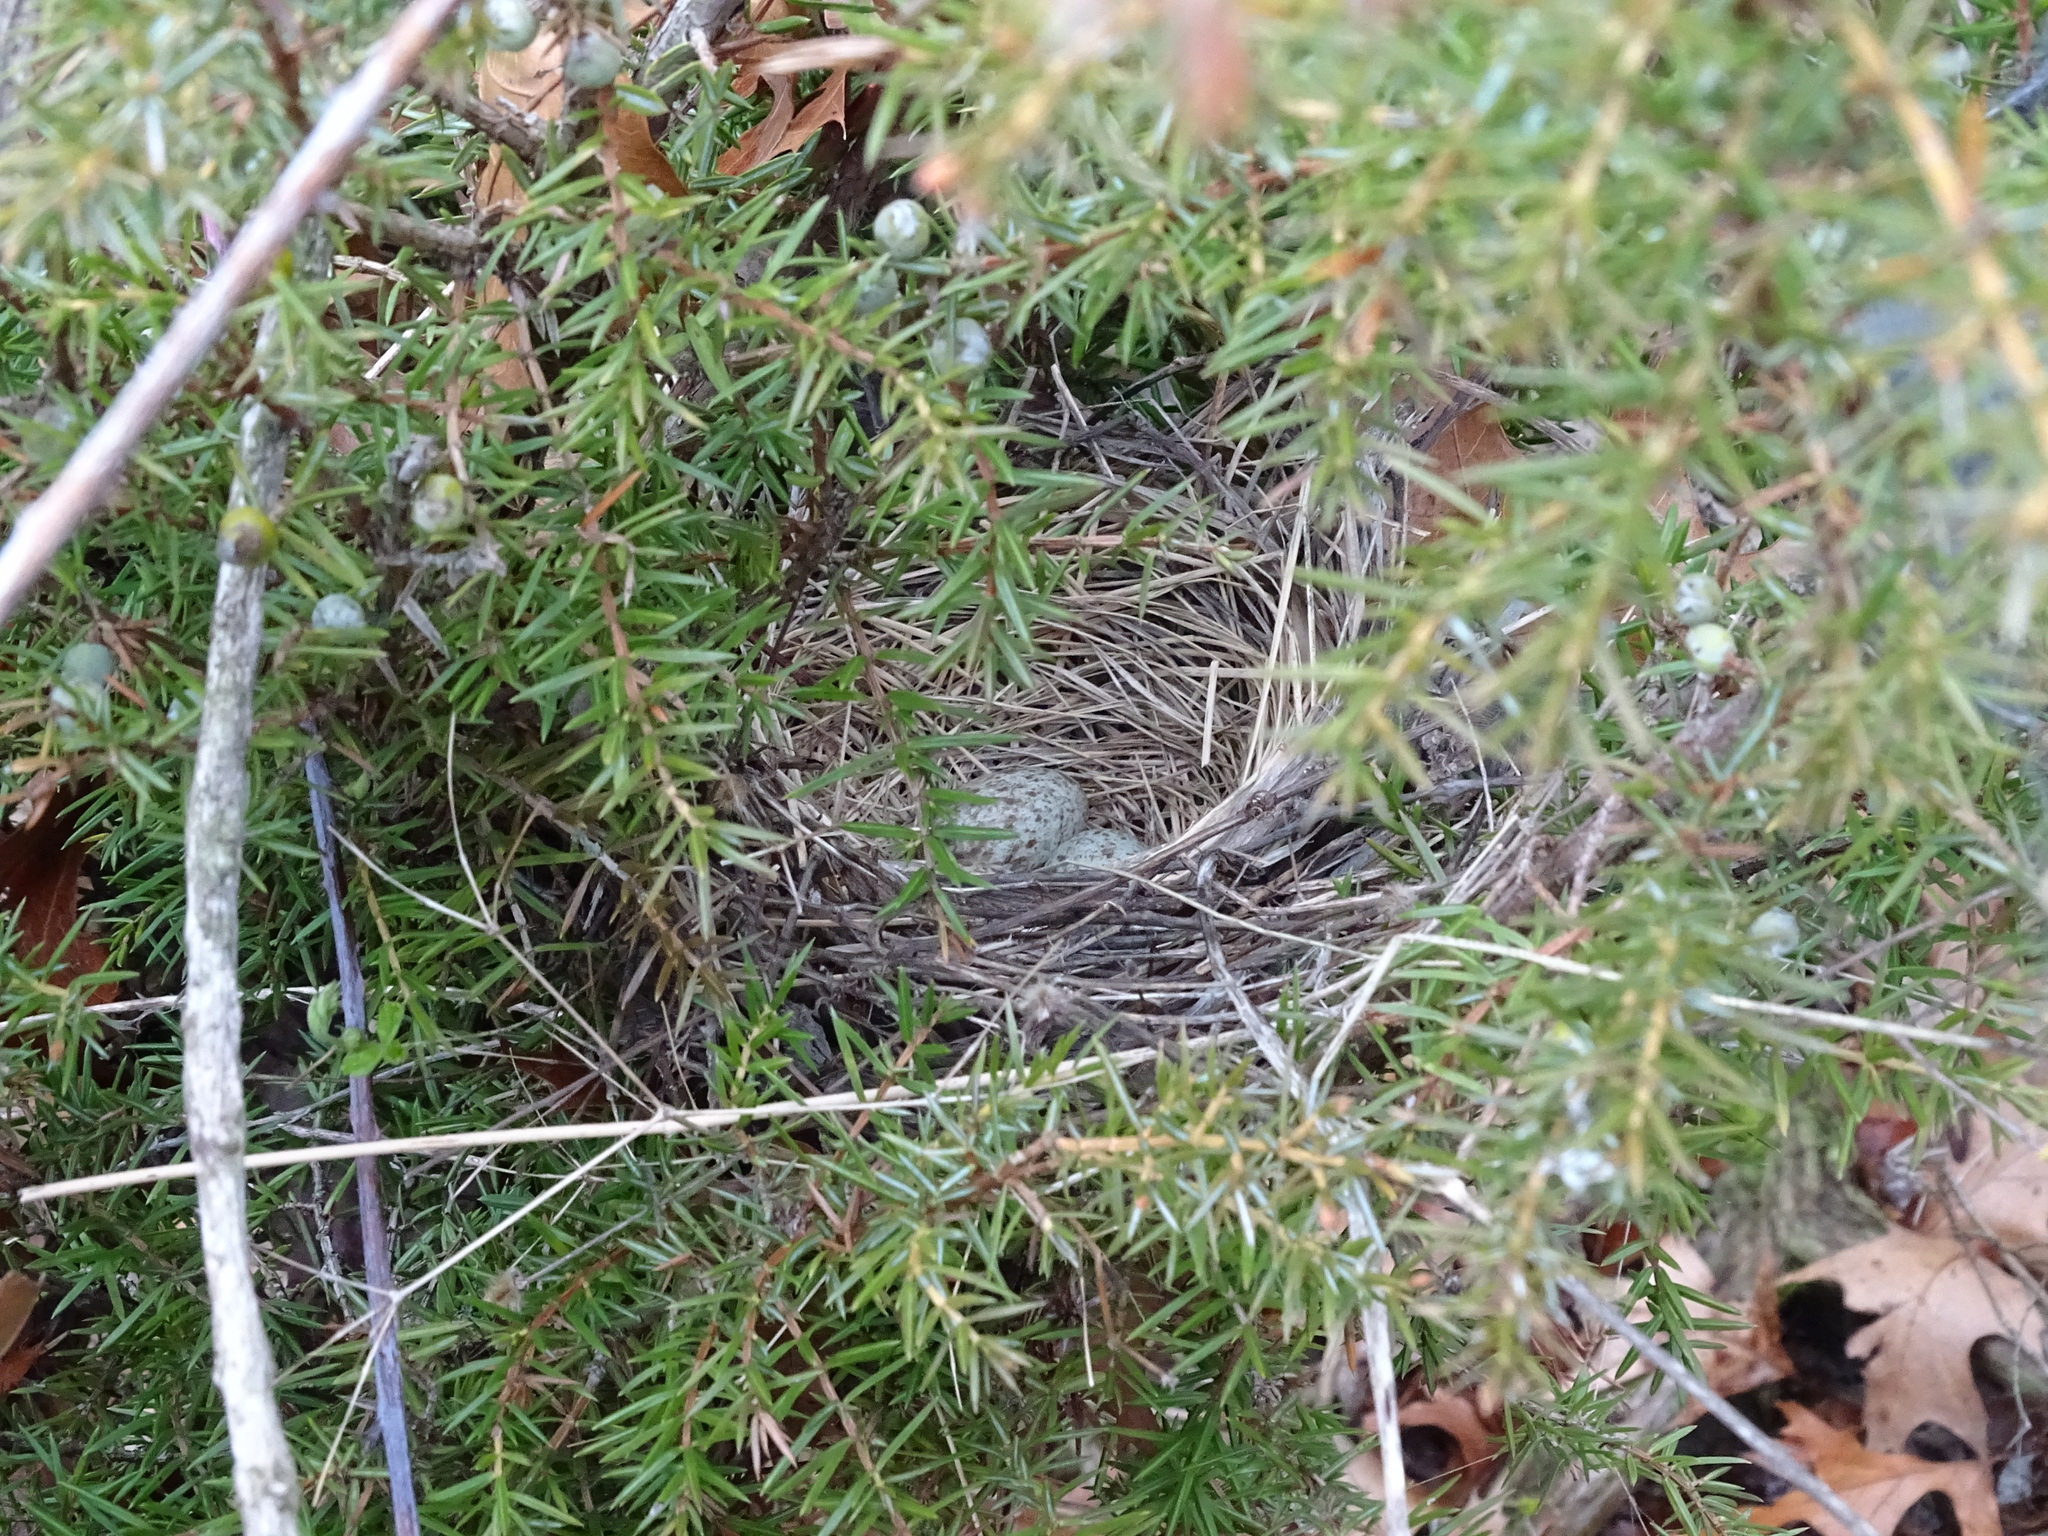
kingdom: Animalia
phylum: Chordata
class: Aves
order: Passeriformes
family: Cardinalidae
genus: Cardinalis
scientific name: Cardinalis cardinalis
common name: Northern cardinal
